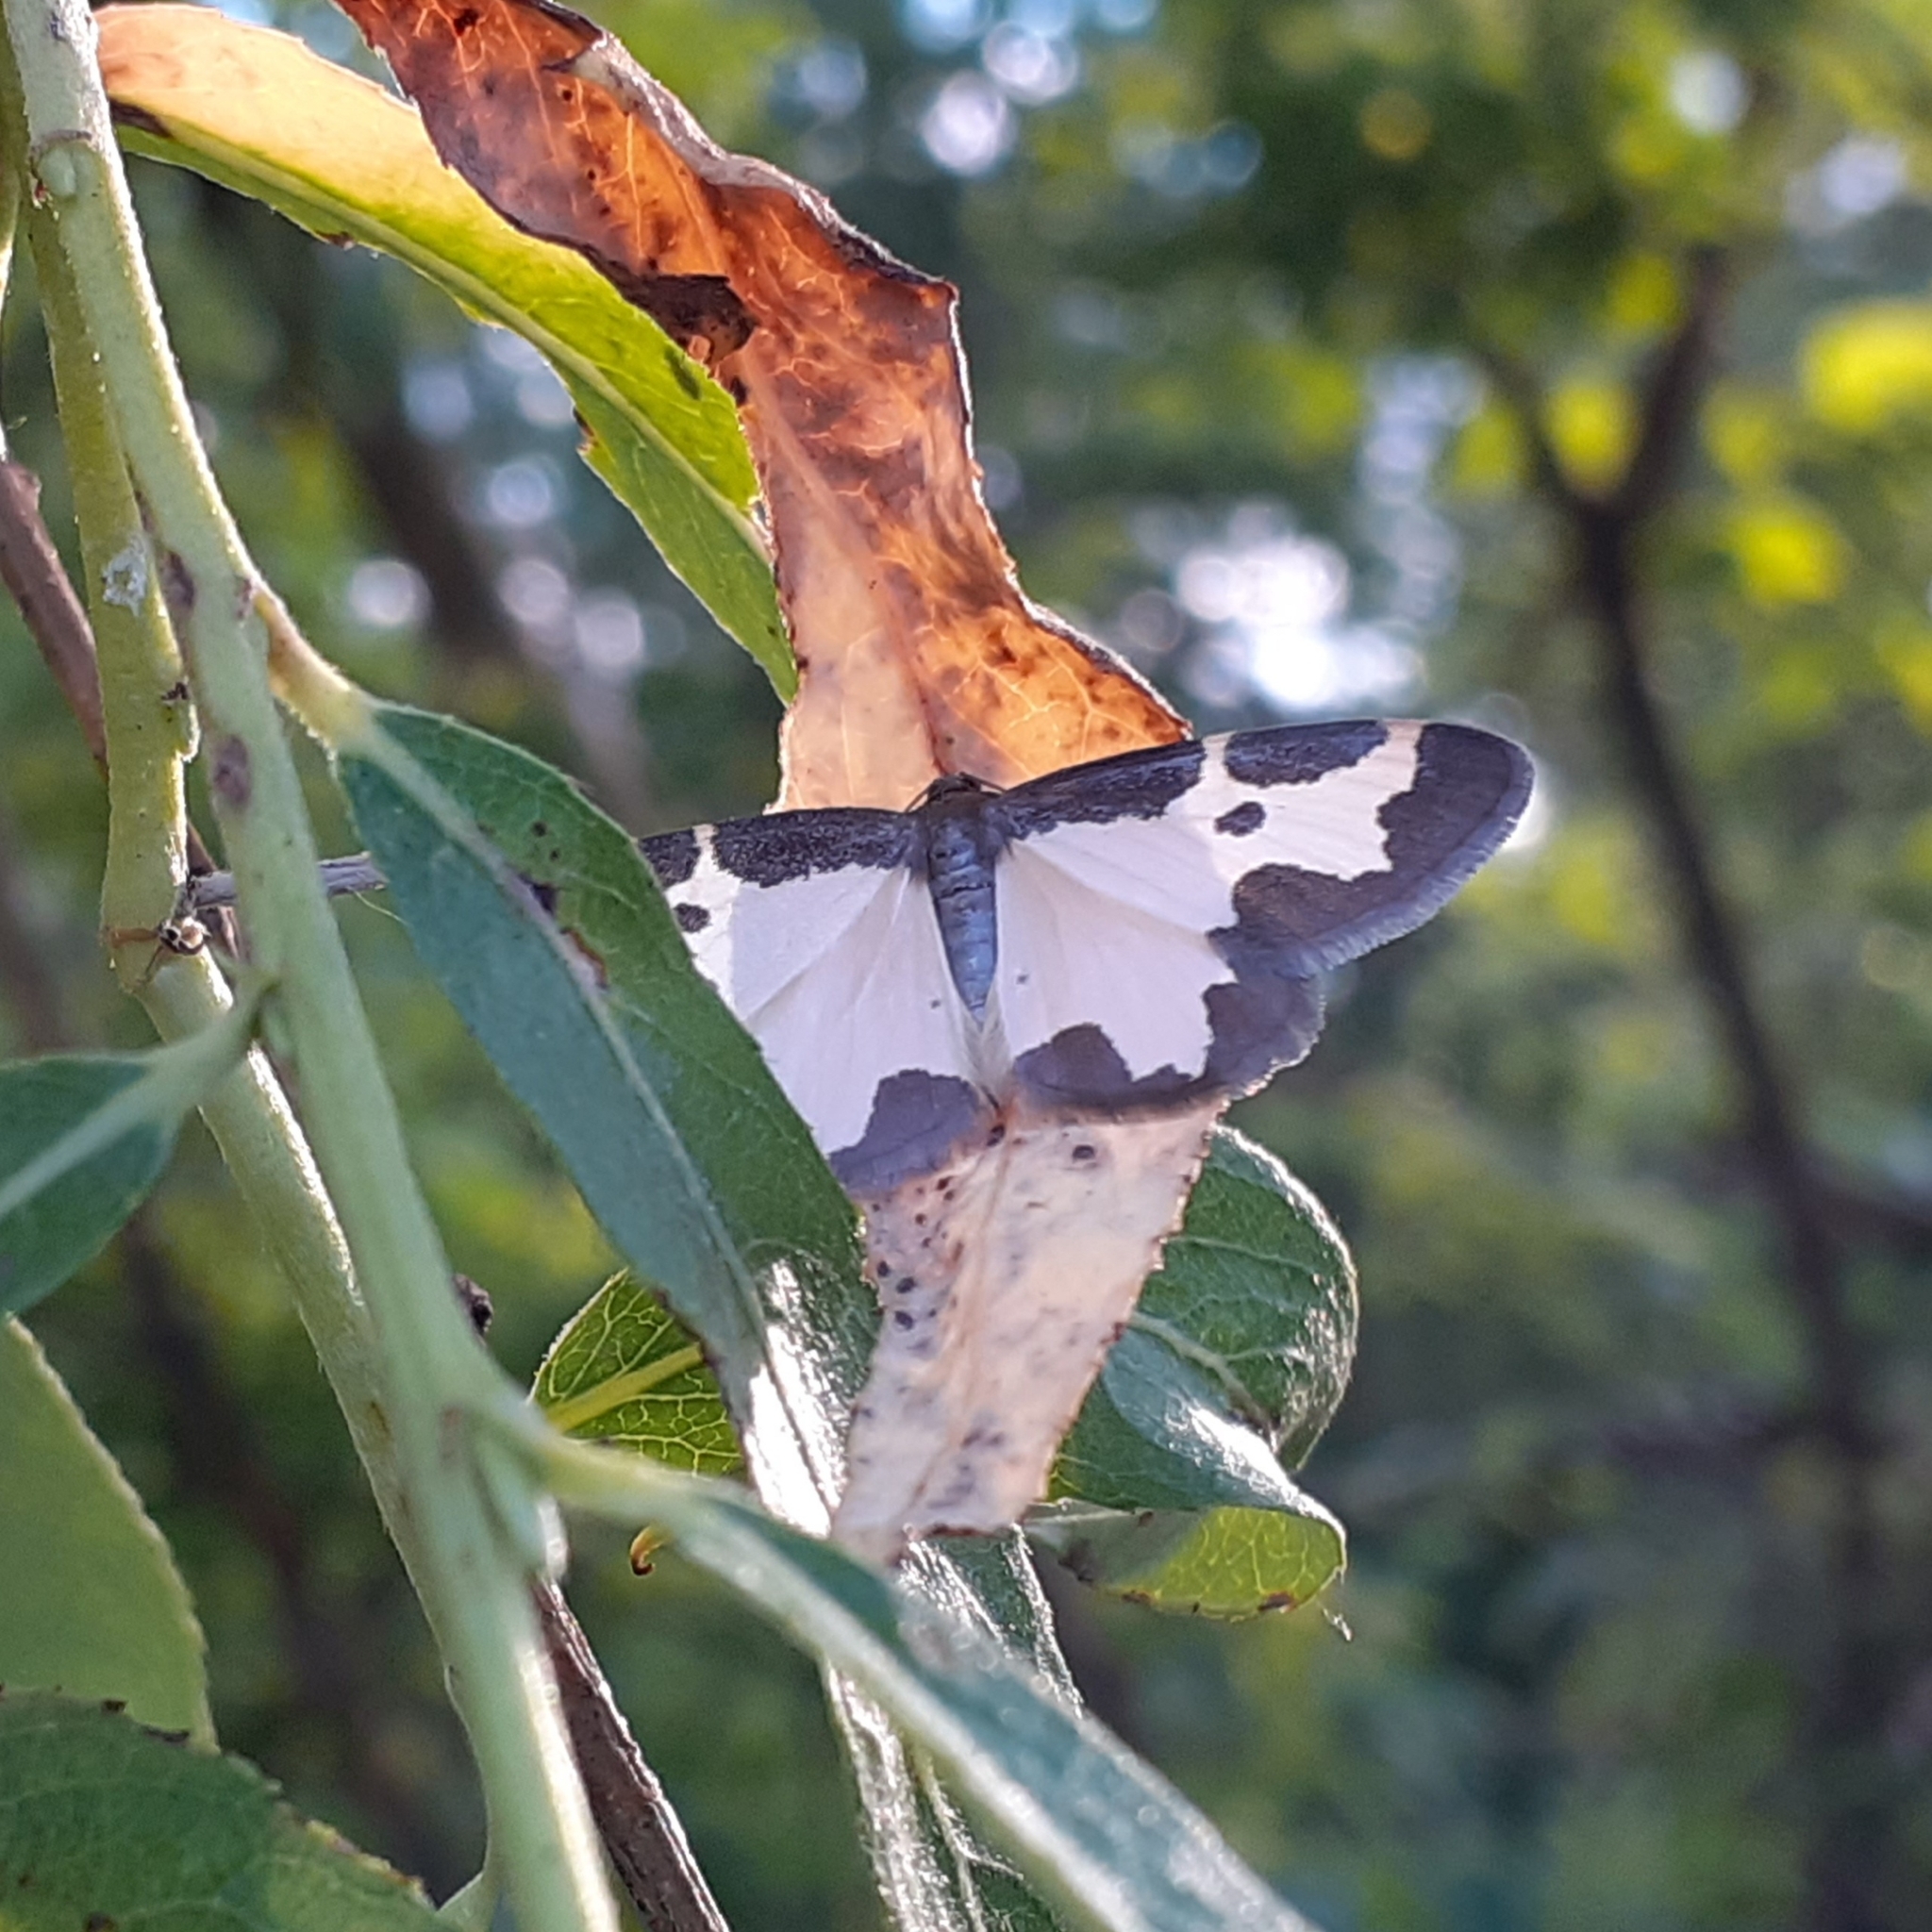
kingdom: Animalia
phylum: Arthropoda
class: Insecta
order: Lepidoptera
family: Geometridae
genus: Lomaspilis
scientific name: Lomaspilis marginata
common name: Clouded border
